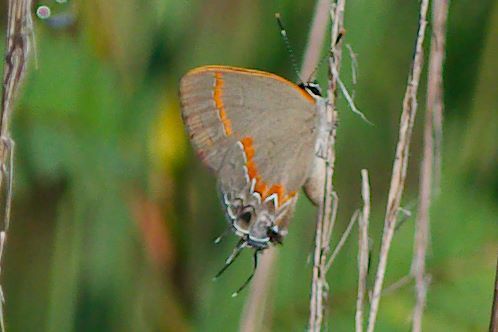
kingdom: Animalia
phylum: Arthropoda
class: Insecta
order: Lepidoptera
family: Lycaenidae
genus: Calycopis
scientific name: Calycopis cecrops
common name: Red-banded hairstreak
